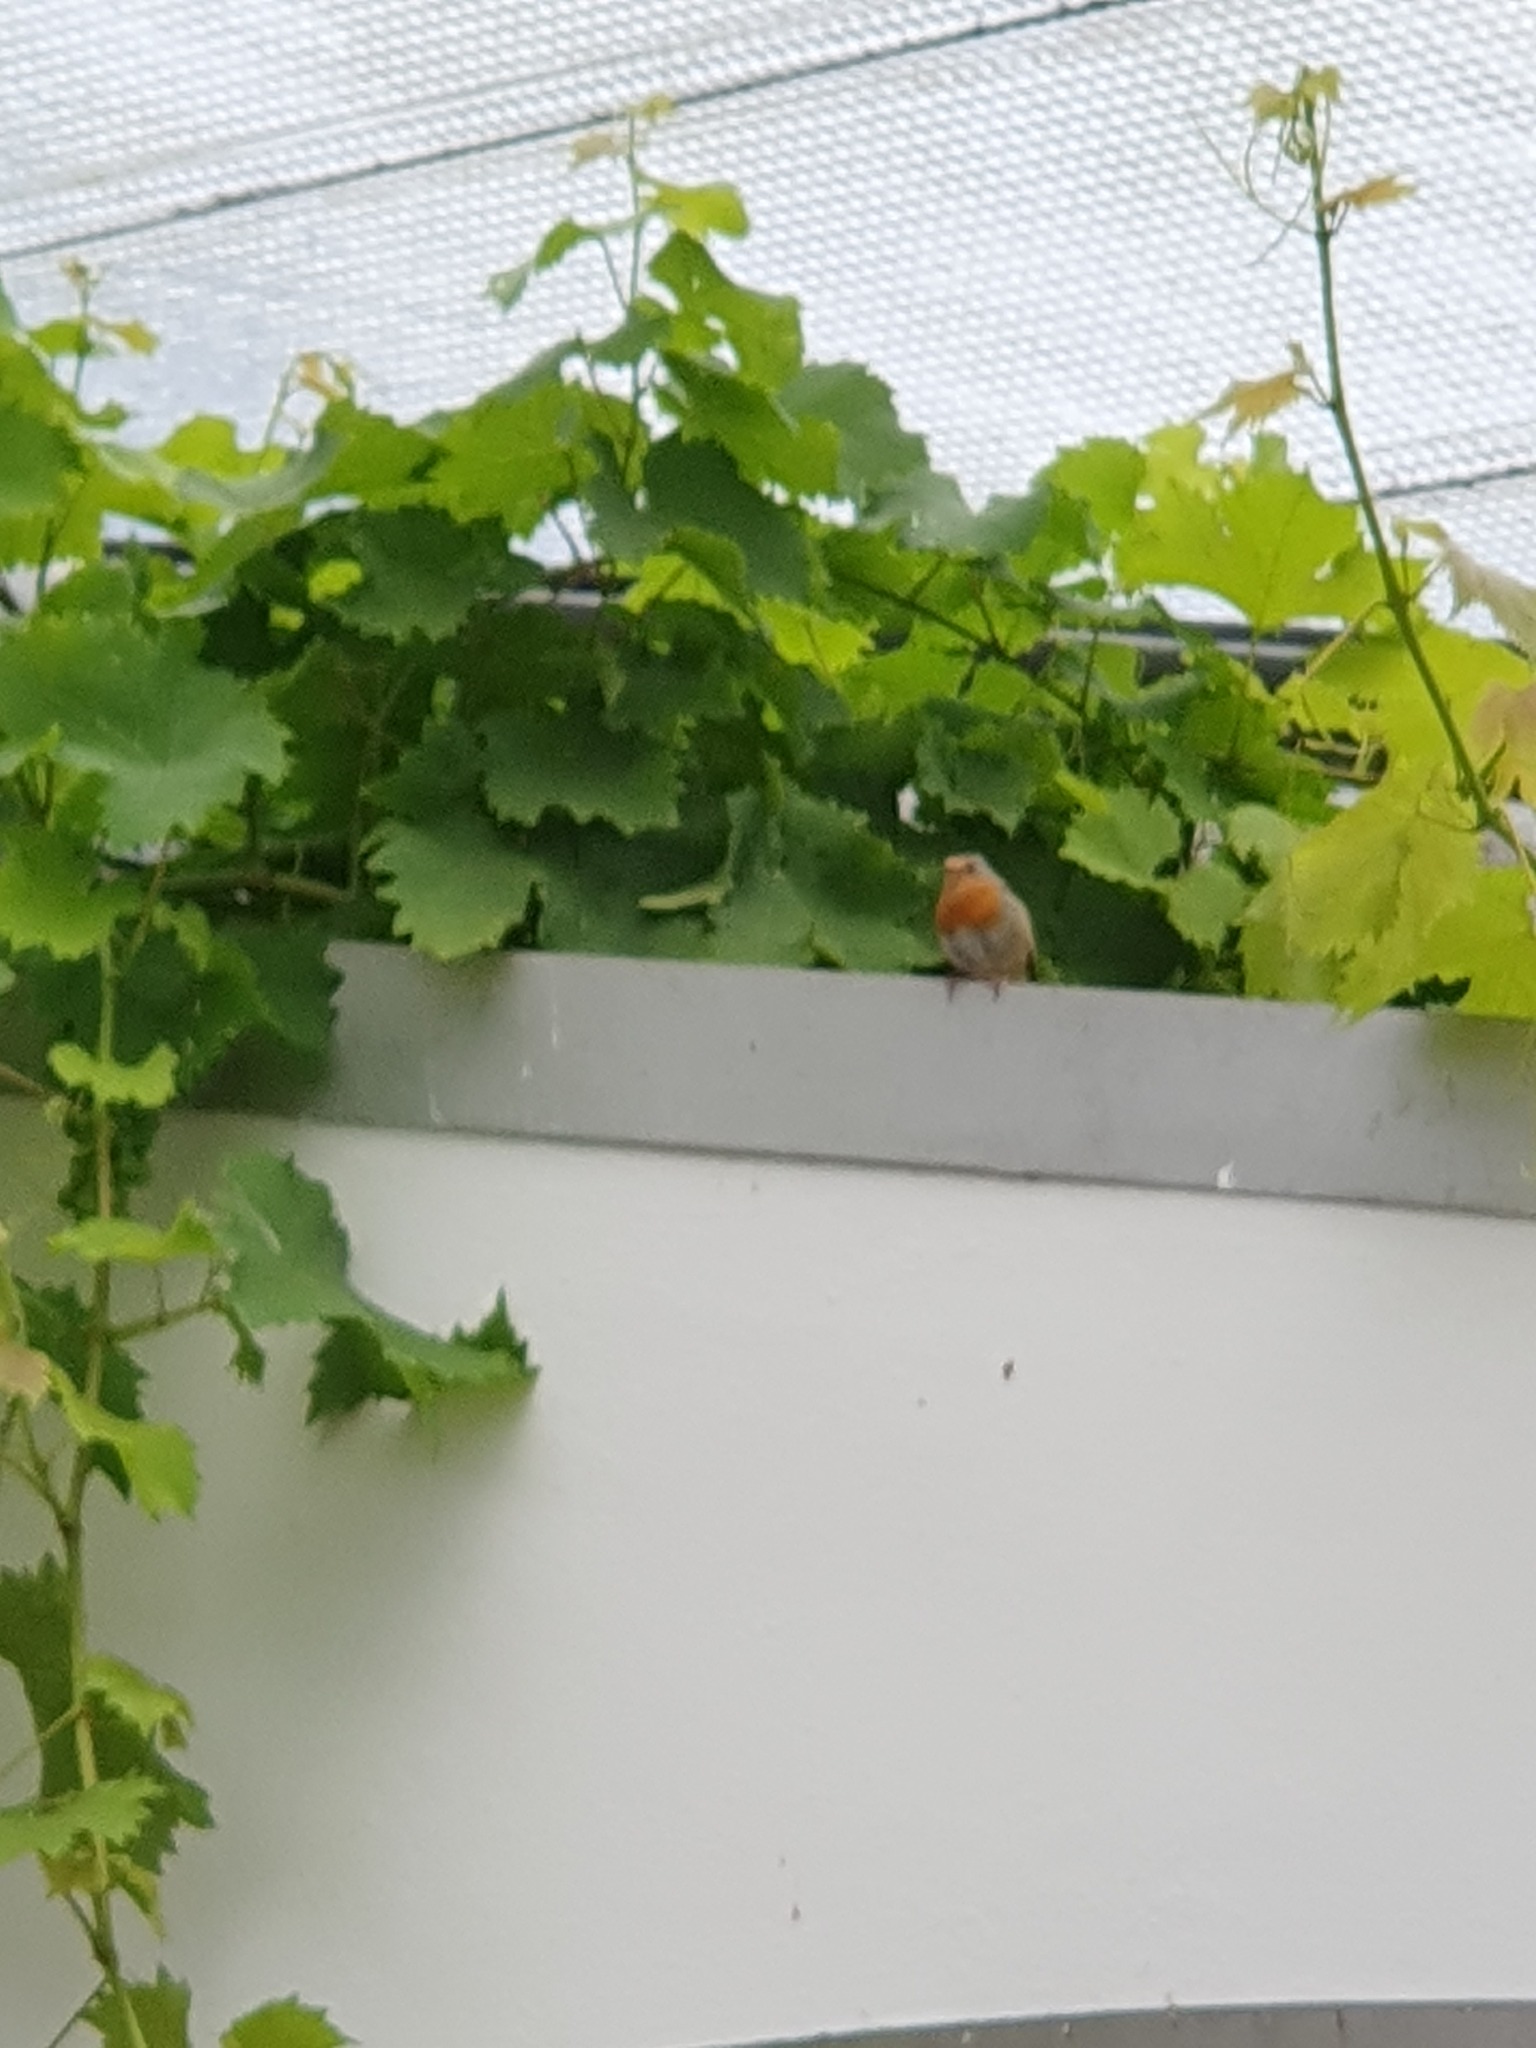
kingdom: Animalia
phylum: Chordata
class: Aves
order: Passeriformes
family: Muscicapidae
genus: Erithacus
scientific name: Erithacus rubecula
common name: European robin
